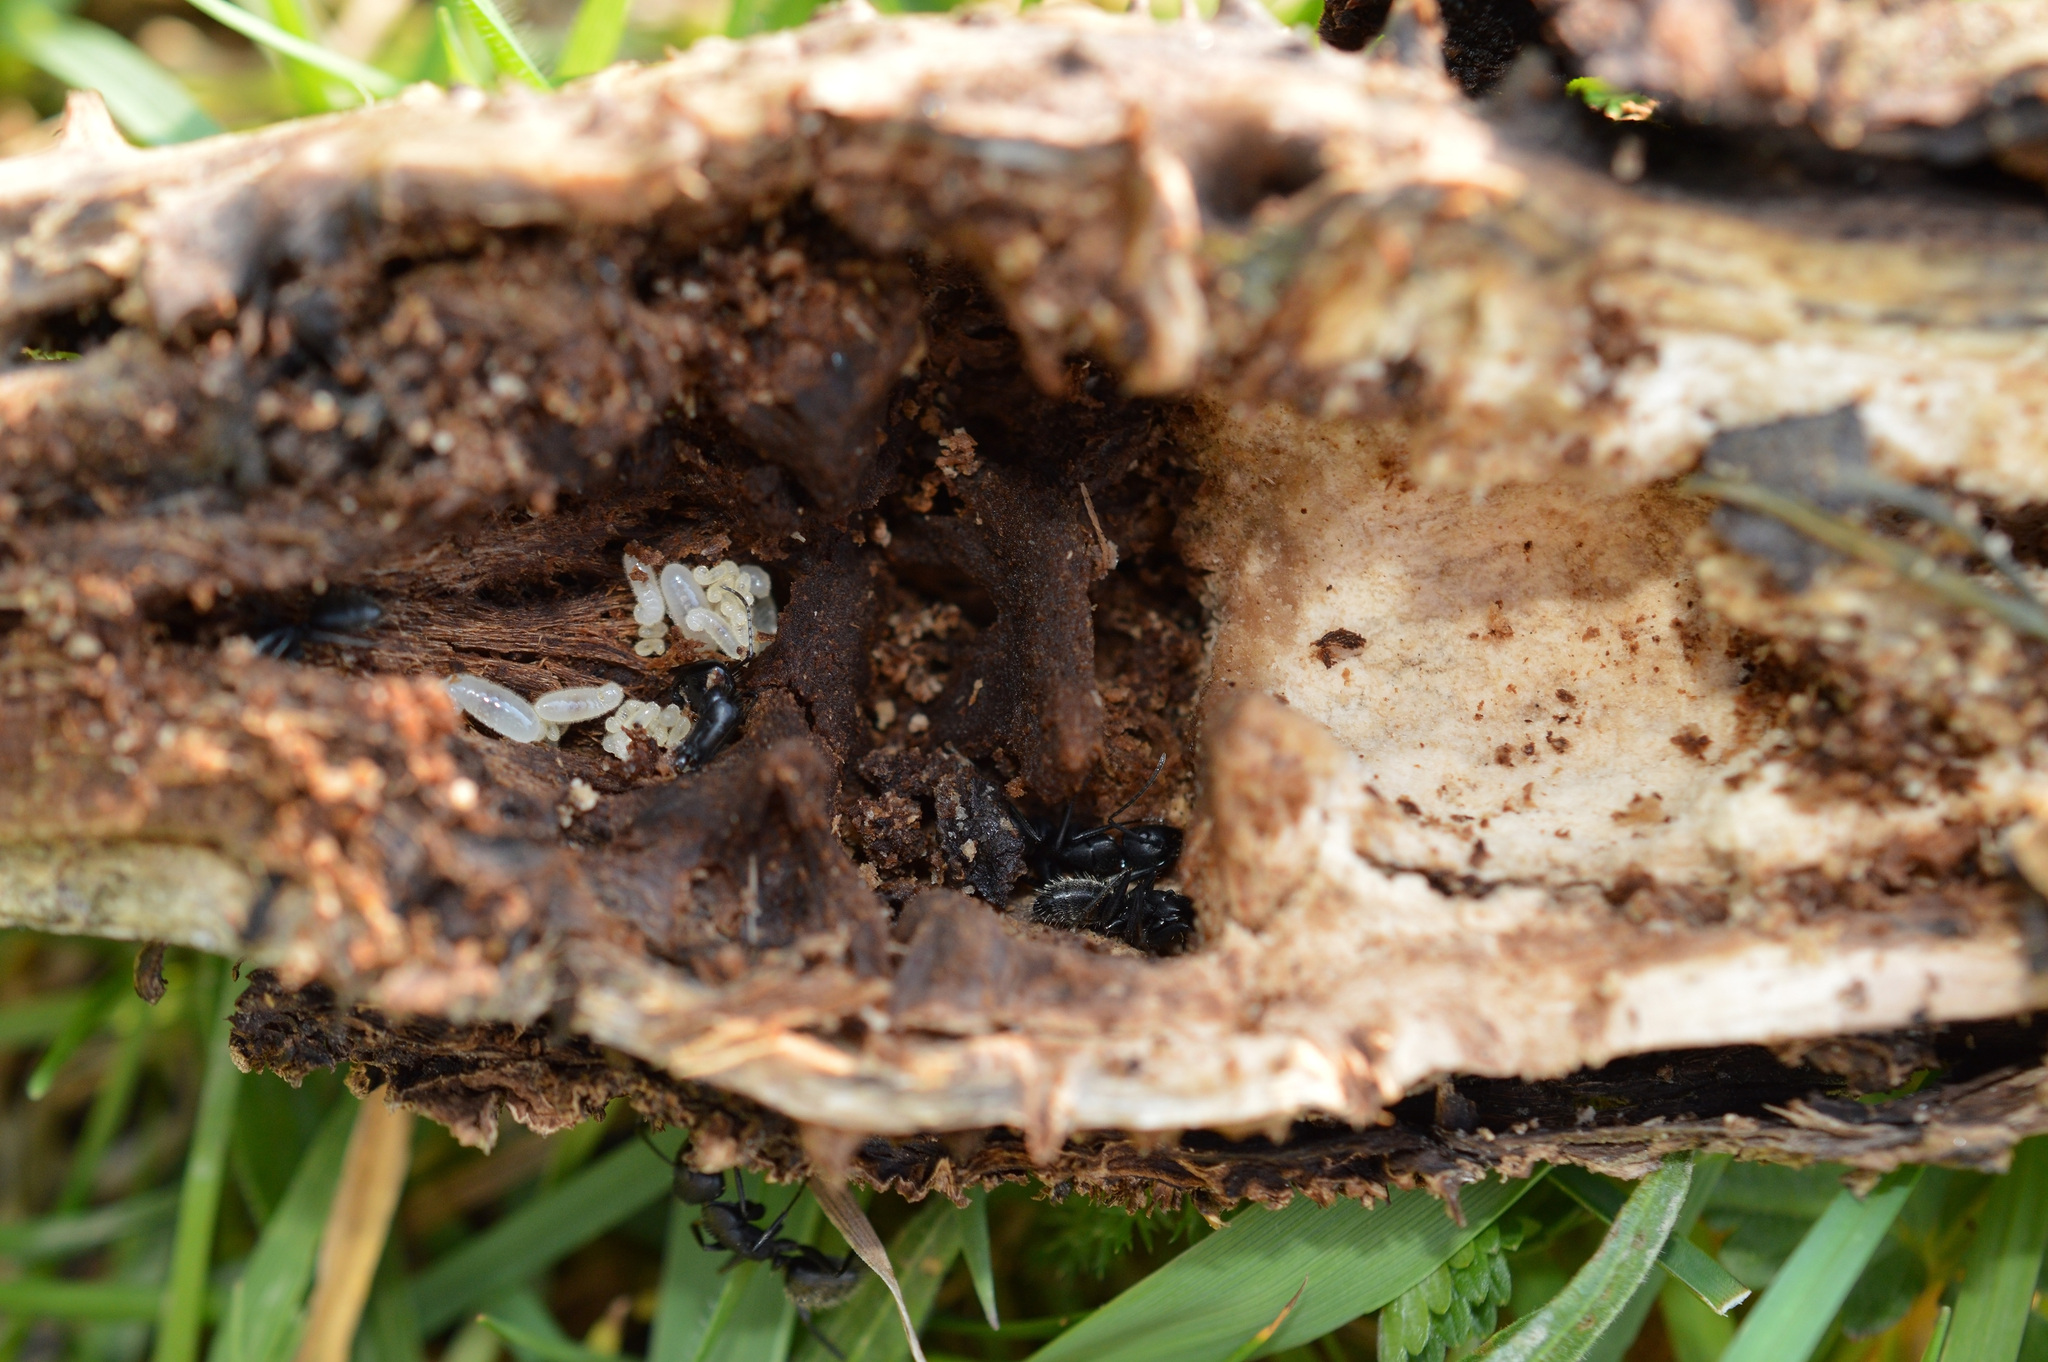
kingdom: Animalia
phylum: Arthropoda
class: Insecta
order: Hymenoptera
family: Formicidae
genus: Camponotus
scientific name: Camponotus vagus
